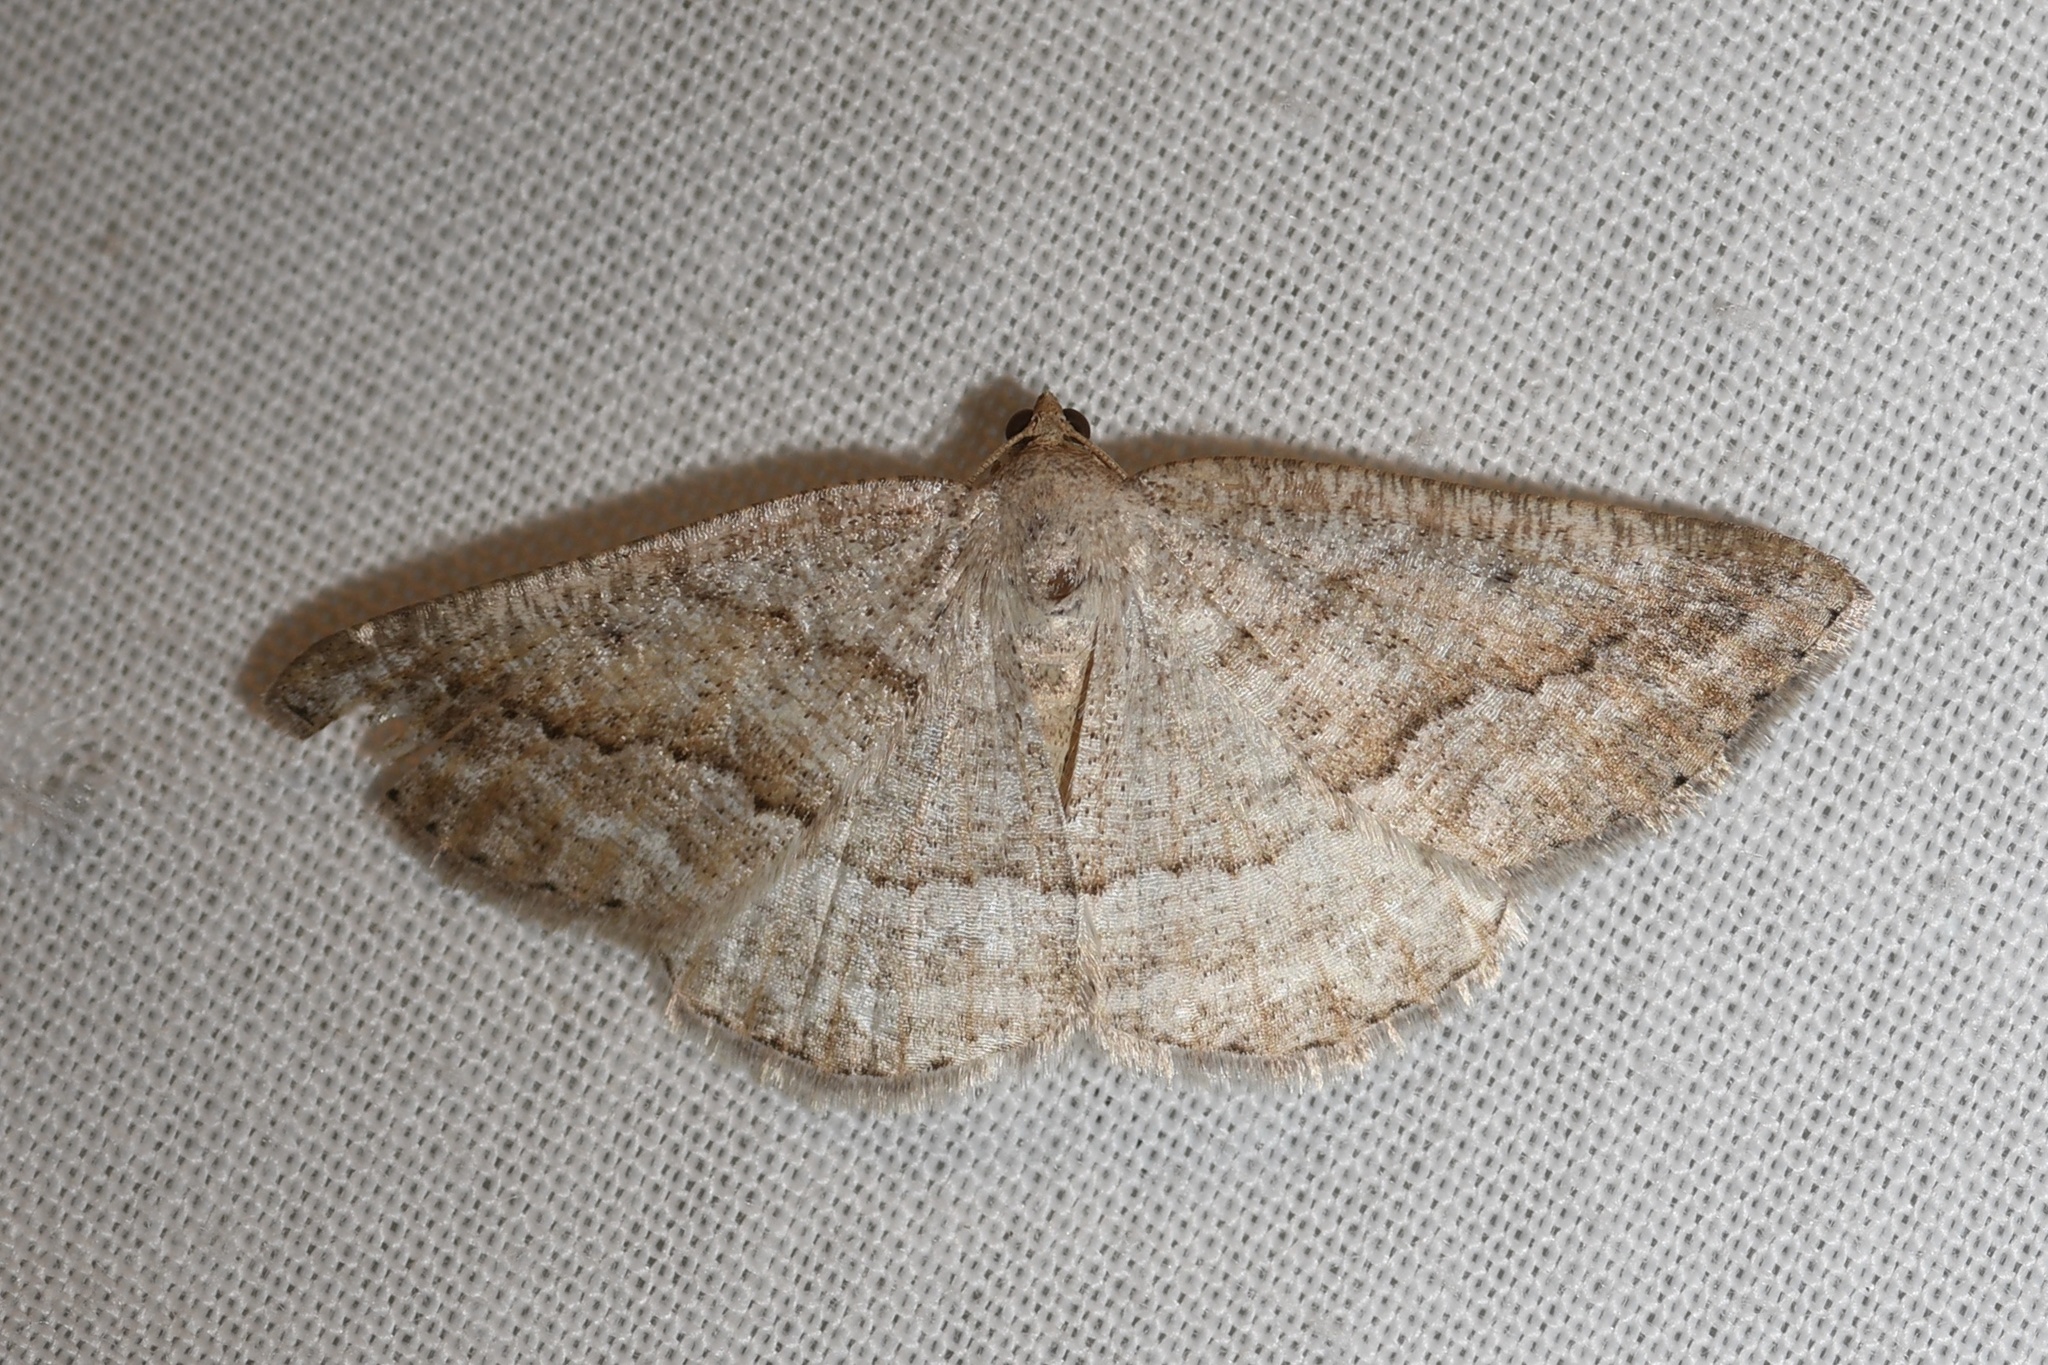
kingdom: Animalia
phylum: Arthropoda
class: Insecta
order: Lepidoptera
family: Geometridae
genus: Tacparia
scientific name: Tacparia detersata
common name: Pale alder moth
